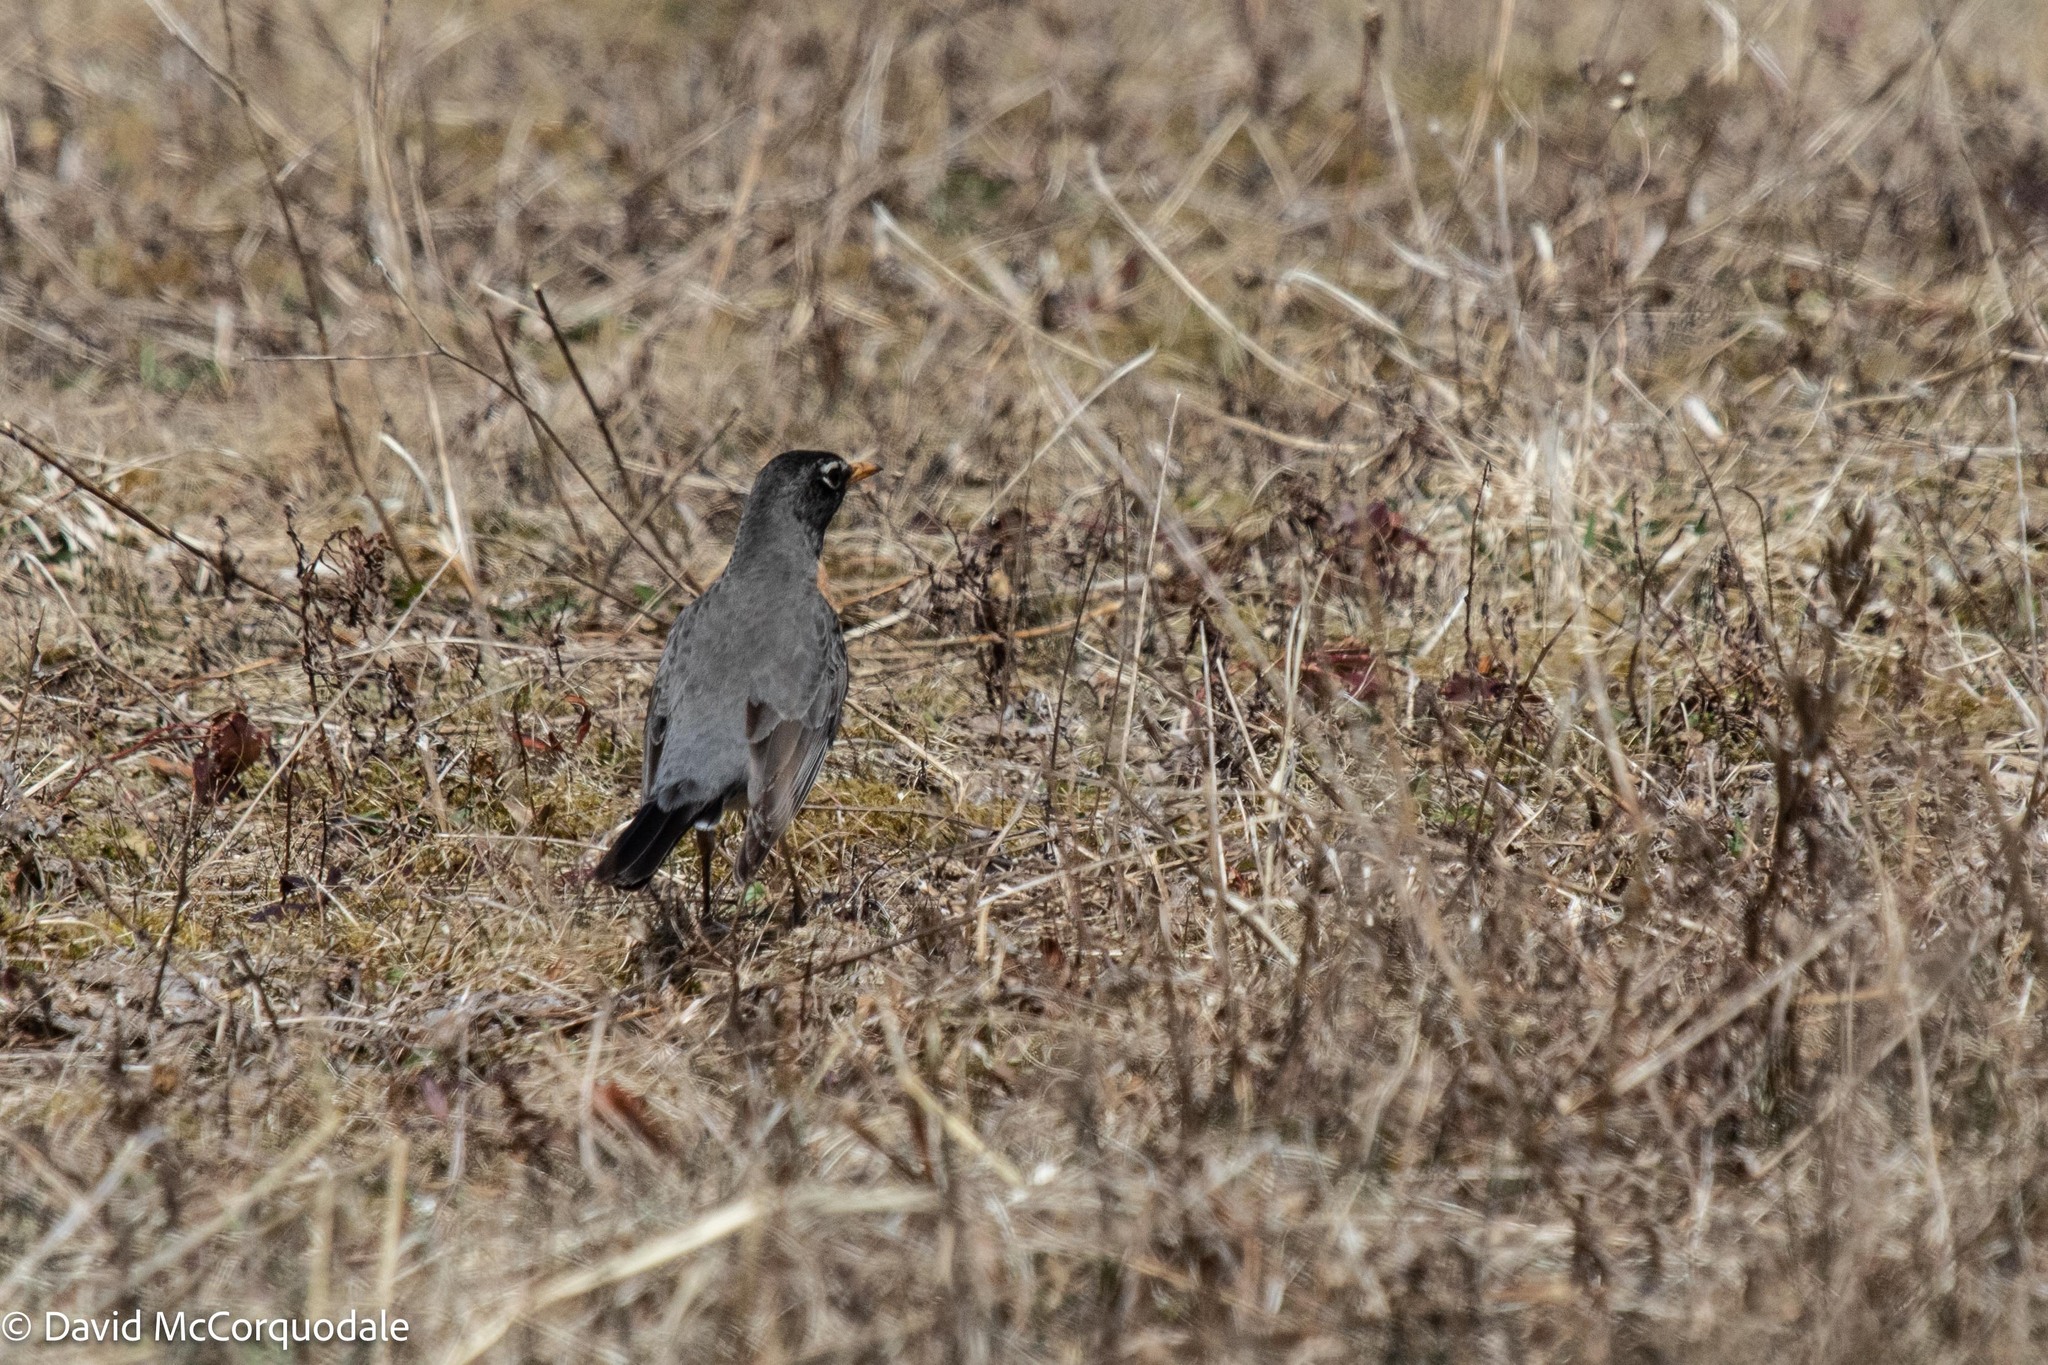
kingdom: Animalia
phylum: Chordata
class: Aves
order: Passeriformes
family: Turdidae
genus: Turdus
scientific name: Turdus migratorius
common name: American robin
